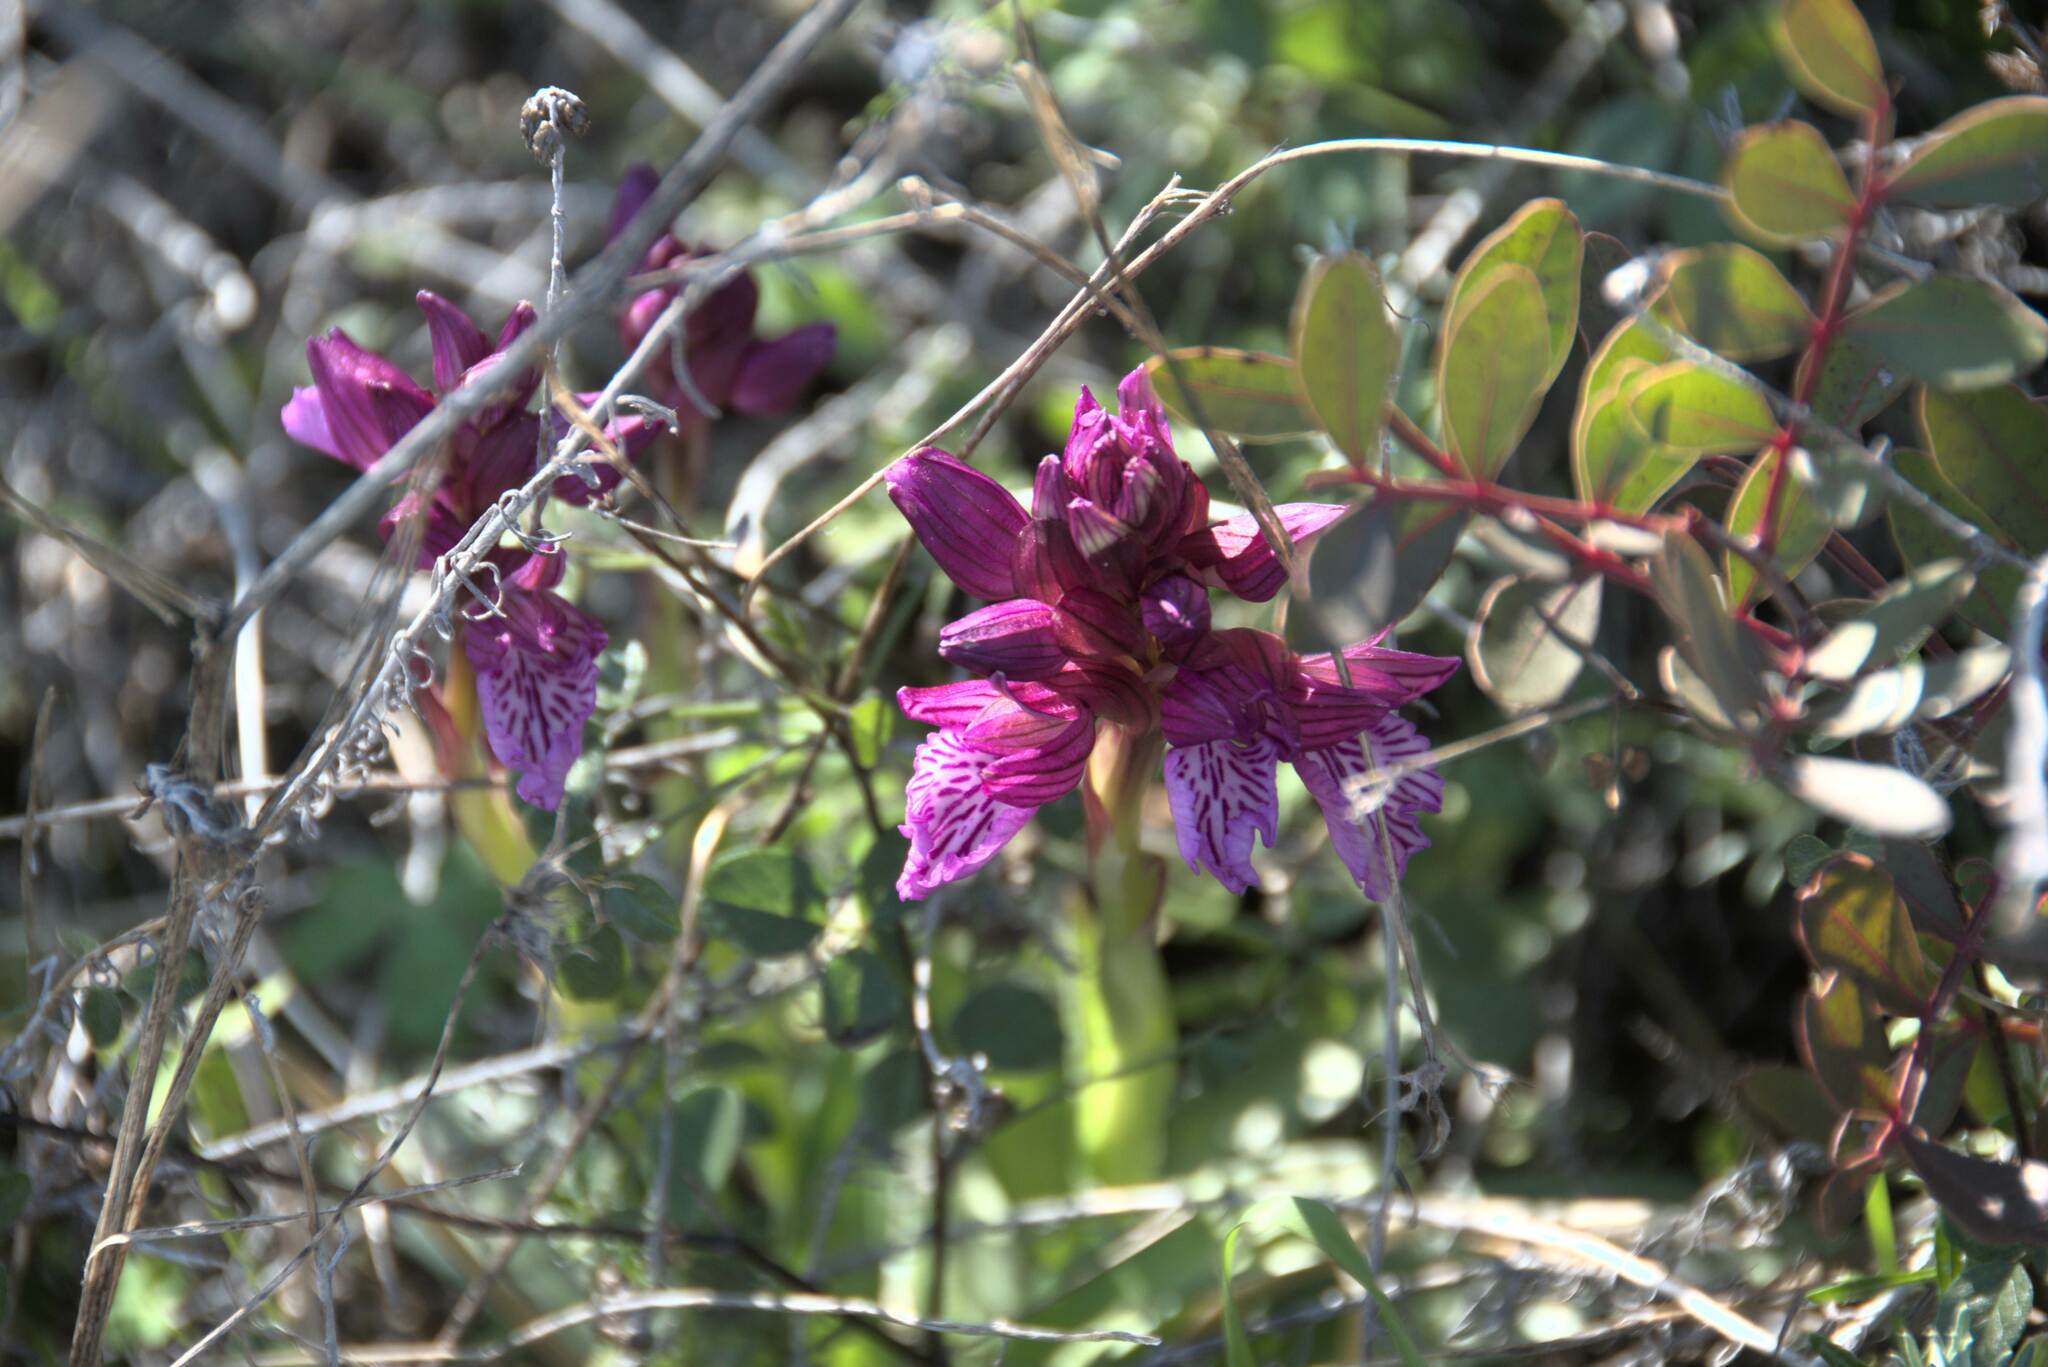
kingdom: Plantae
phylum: Tracheophyta
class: Liliopsida
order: Asparagales
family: Orchidaceae
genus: Anacamptis
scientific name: Anacamptis papilionacea
